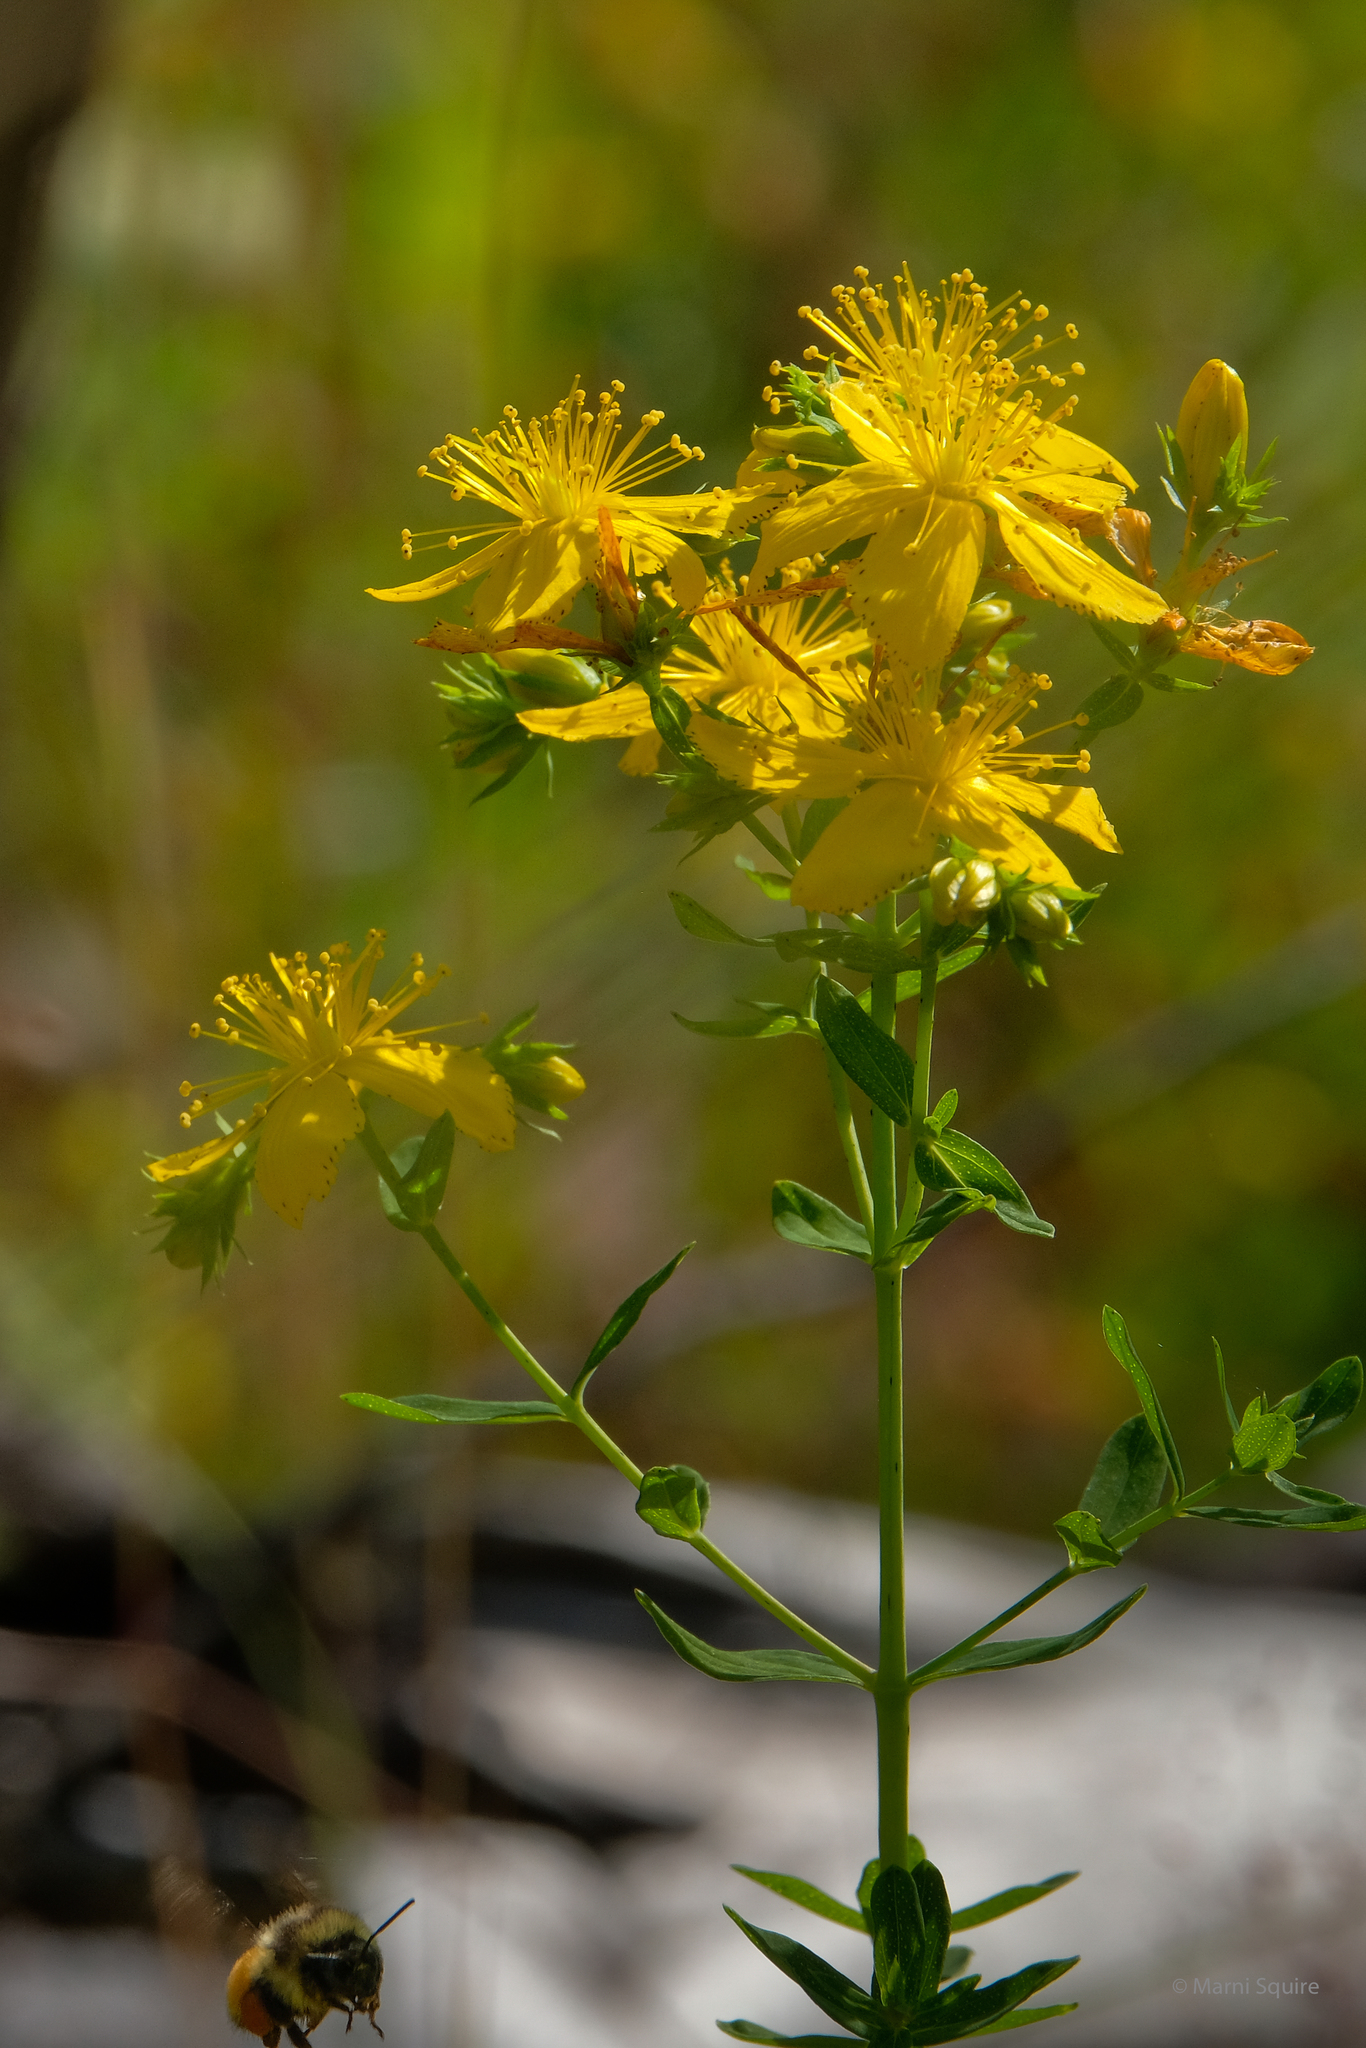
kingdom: Plantae
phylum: Tracheophyta
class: Magnoliopsida
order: Malpighiales
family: Hypericaceae
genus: Hypericum
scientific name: Hypericum perforatum
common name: Common st. johnswort
